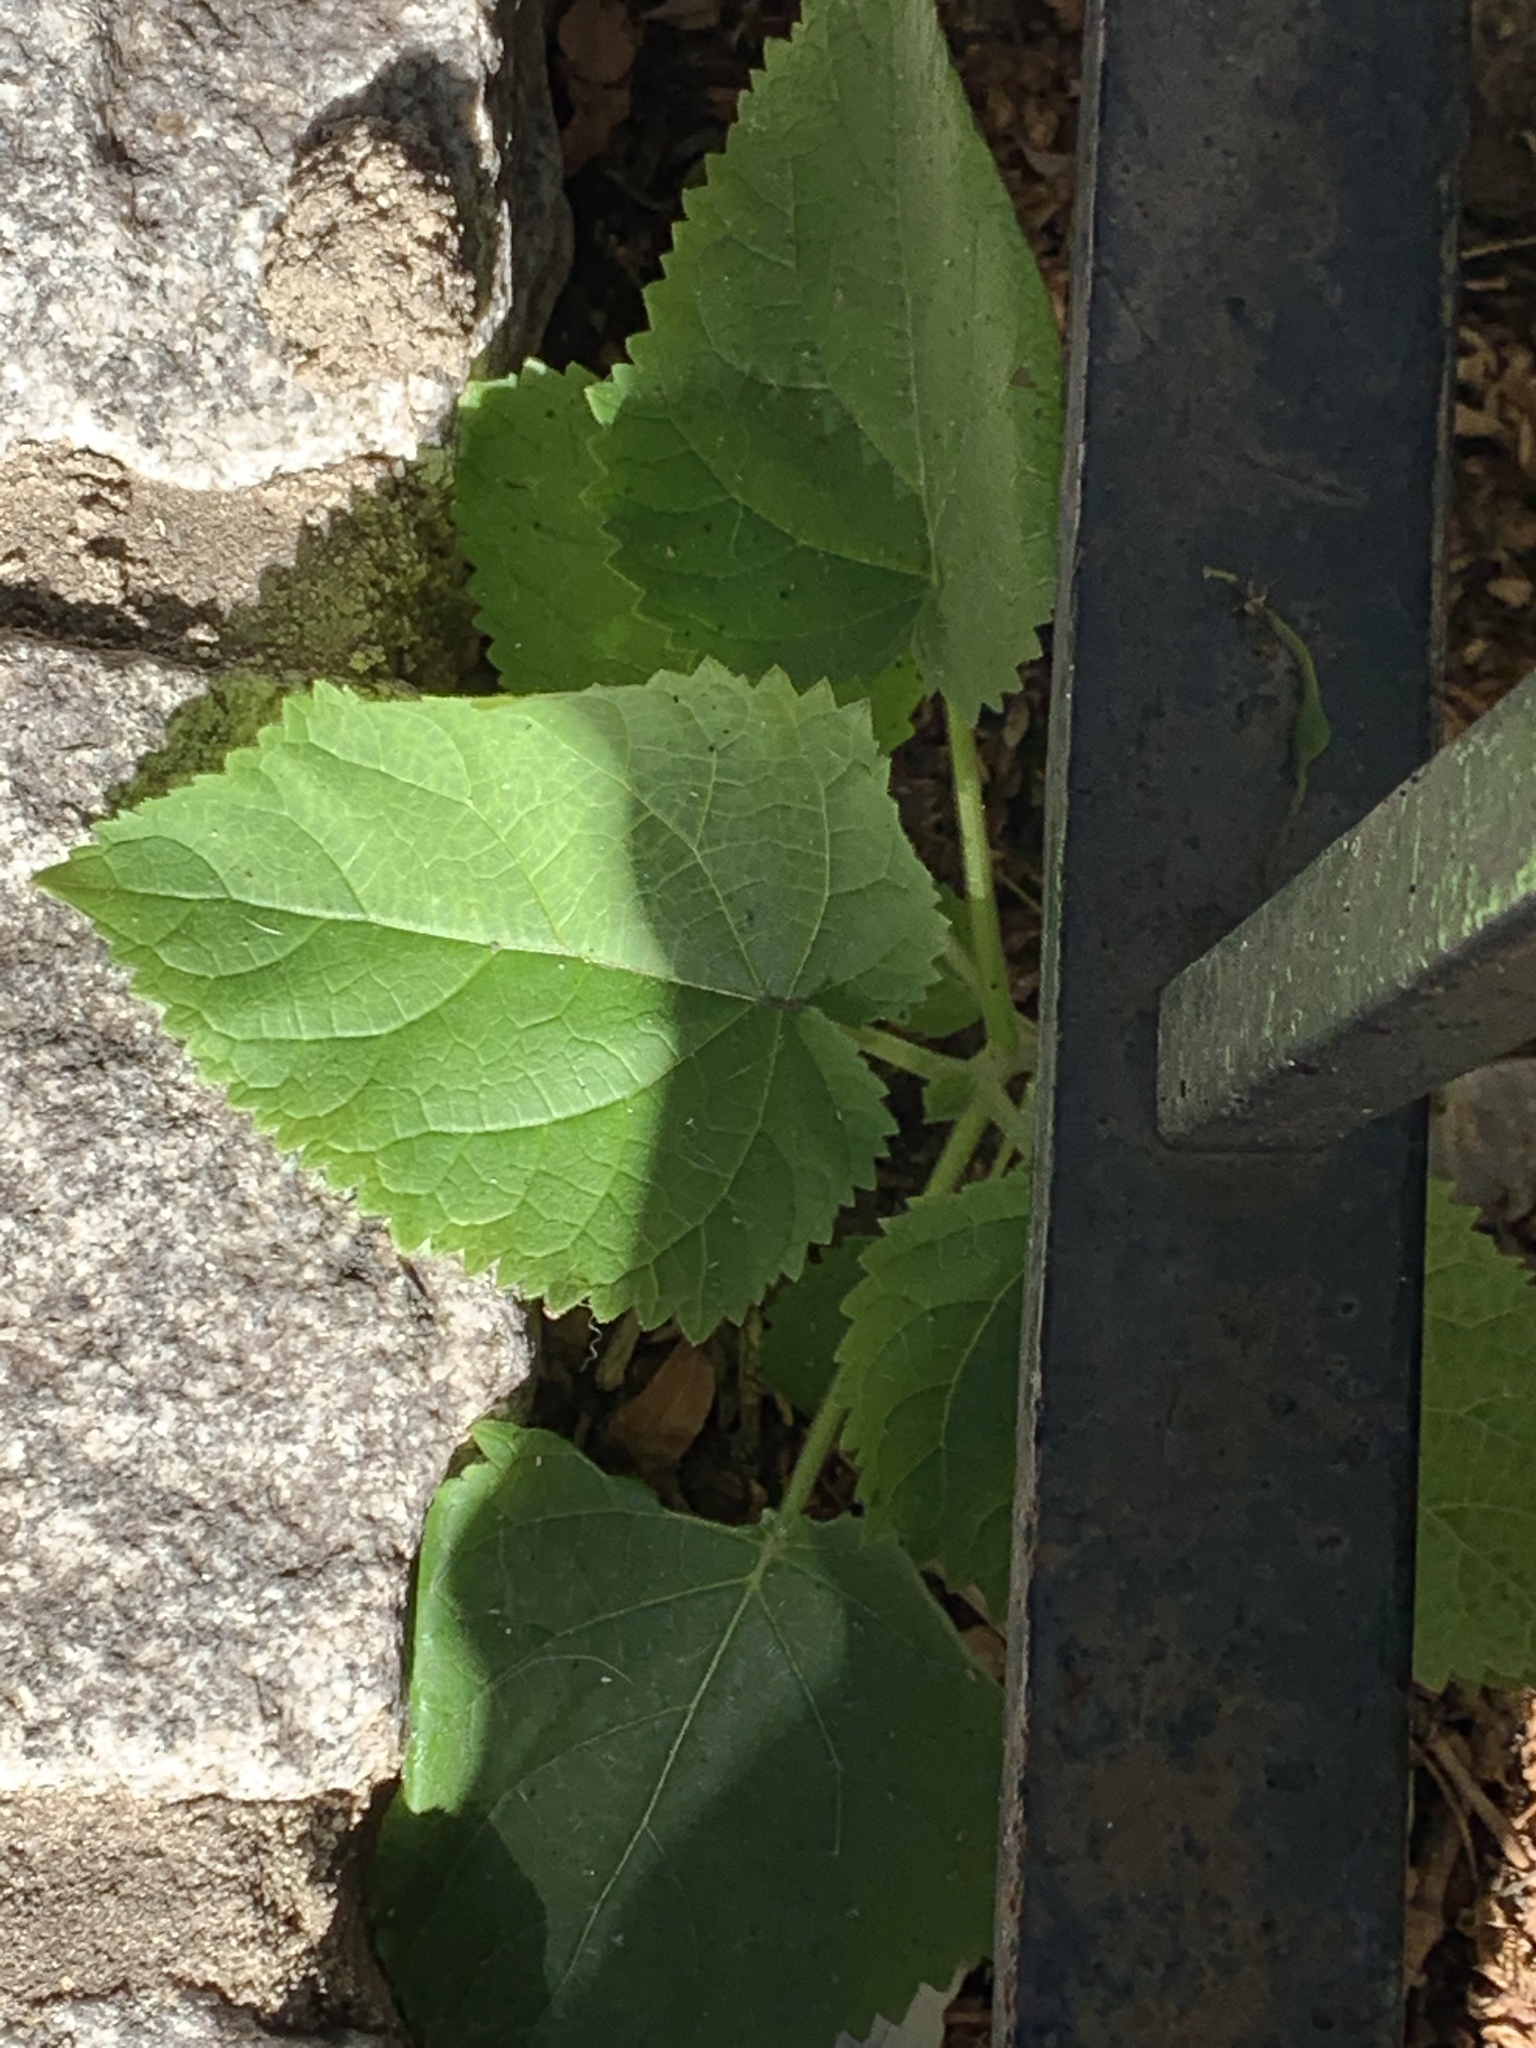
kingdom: Plantae
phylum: Tracheophyta
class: Magnoliopsida
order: Lamiales
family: Paulowniaceae
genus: Paulownia
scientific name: Paulownia tomentosa
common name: Foxglove-tree
